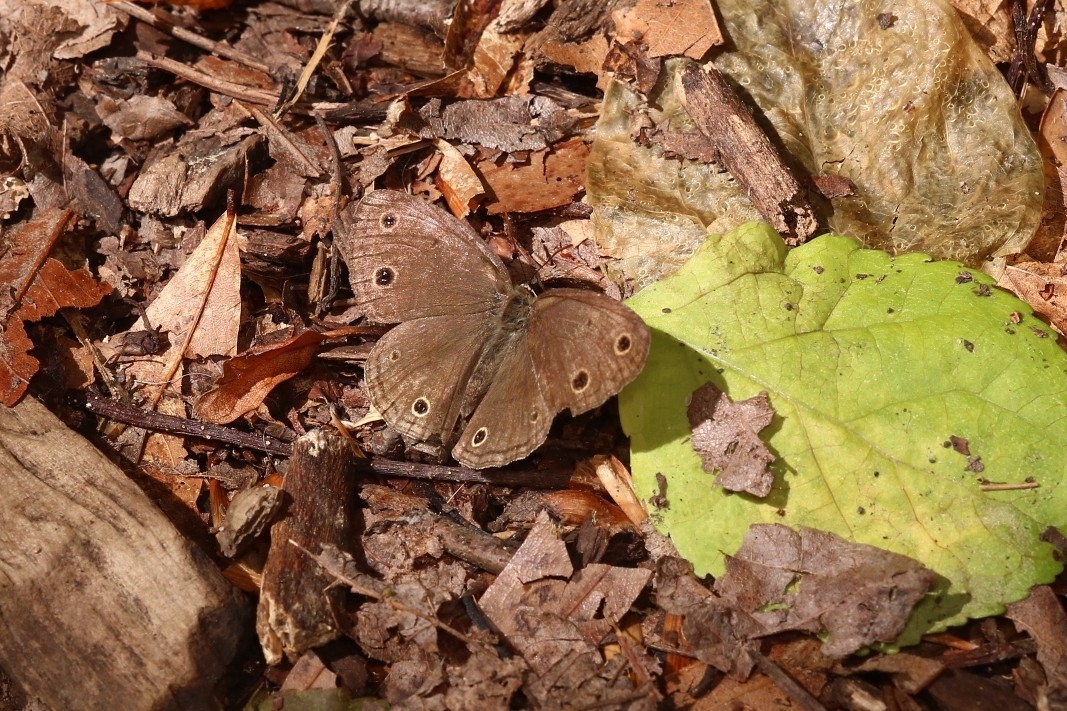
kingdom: Animalia
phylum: Arthropoda
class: Insecta
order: Lepidoptera
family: Nymphalidae
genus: Euptychia
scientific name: Euptychia cymela
